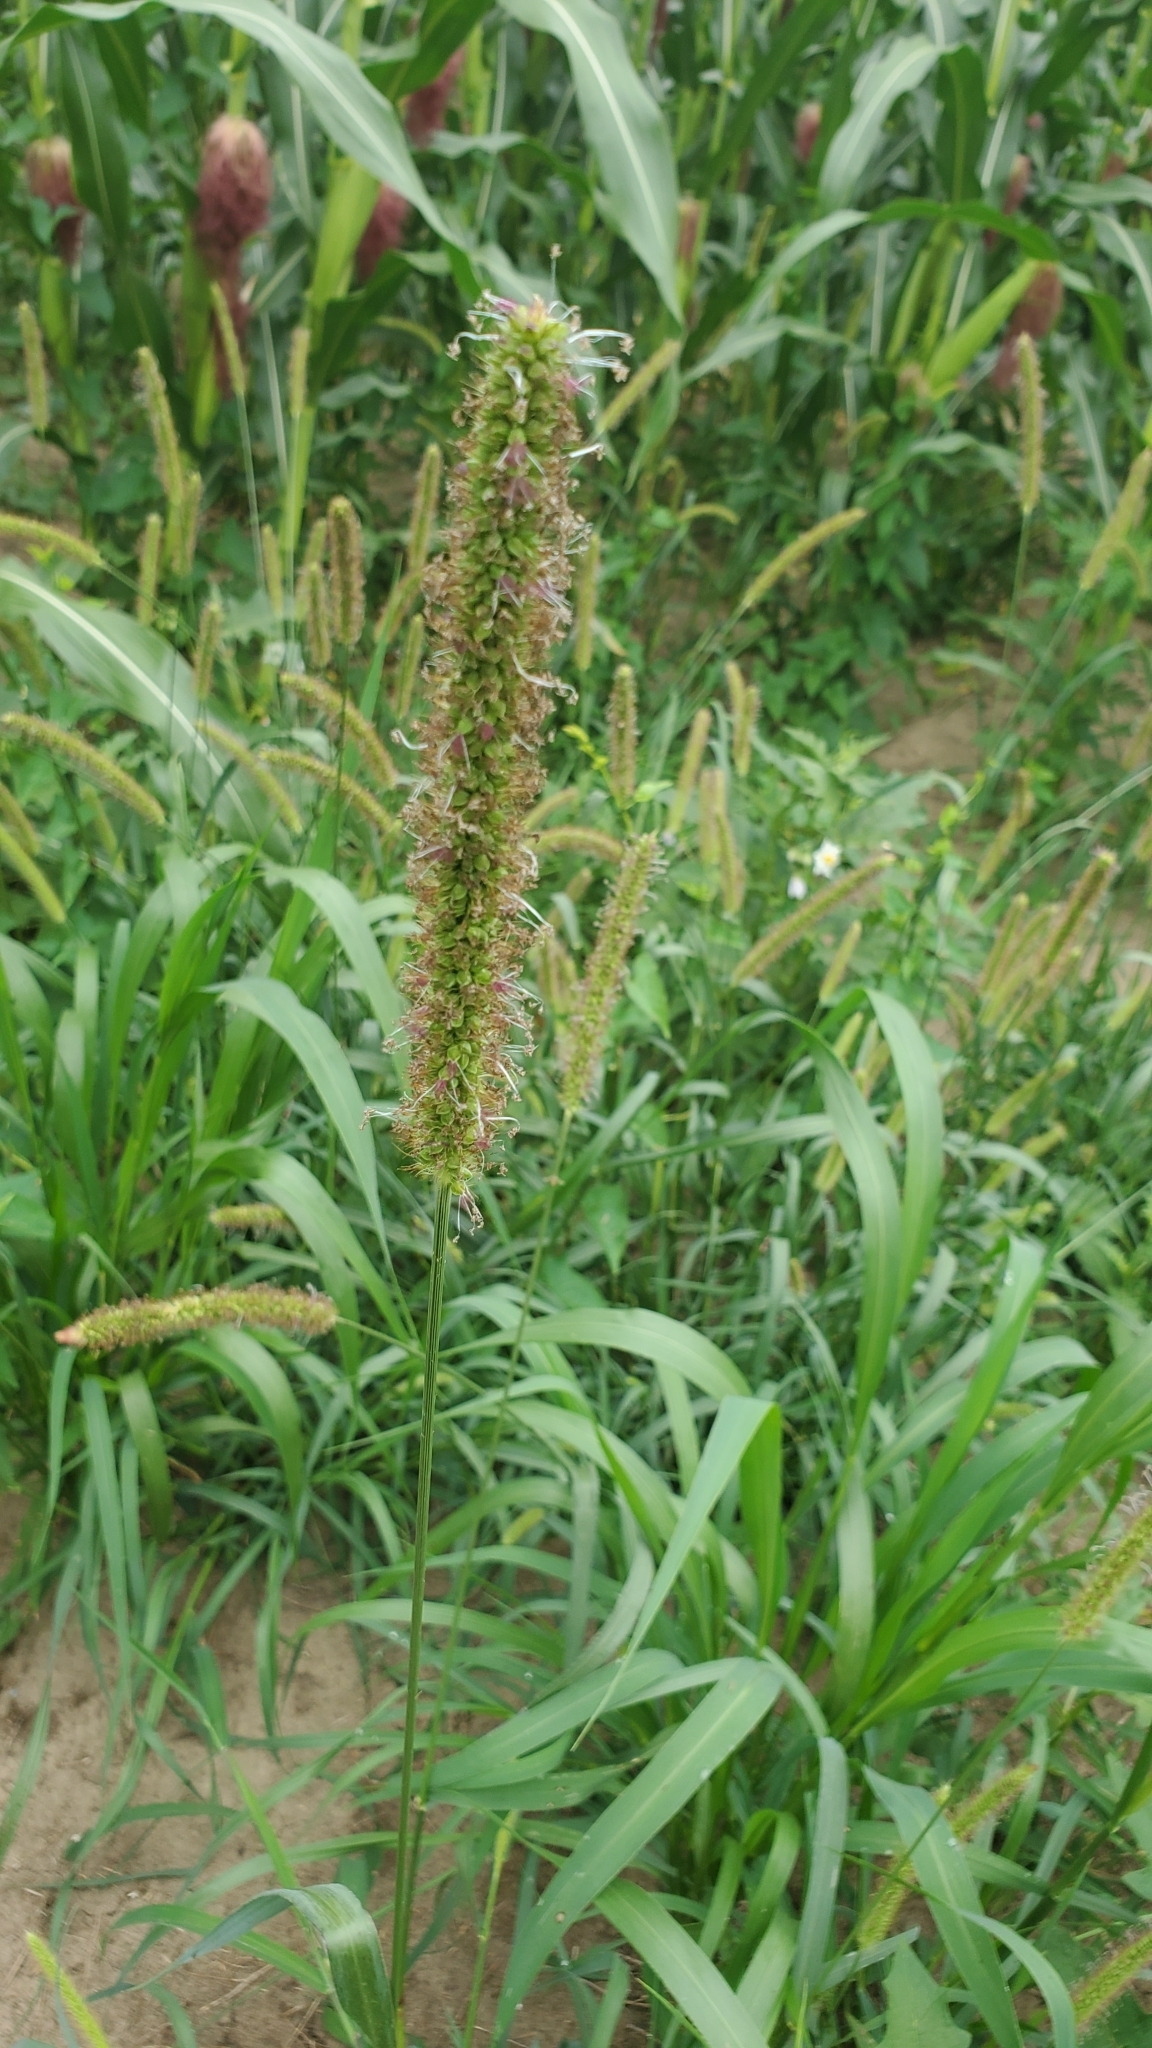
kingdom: Plantae
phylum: Tracheophyta
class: Liliopsida
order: Poales
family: Poaceae
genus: Setaria
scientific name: Setaria pumila
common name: Yellow bristle-grass
